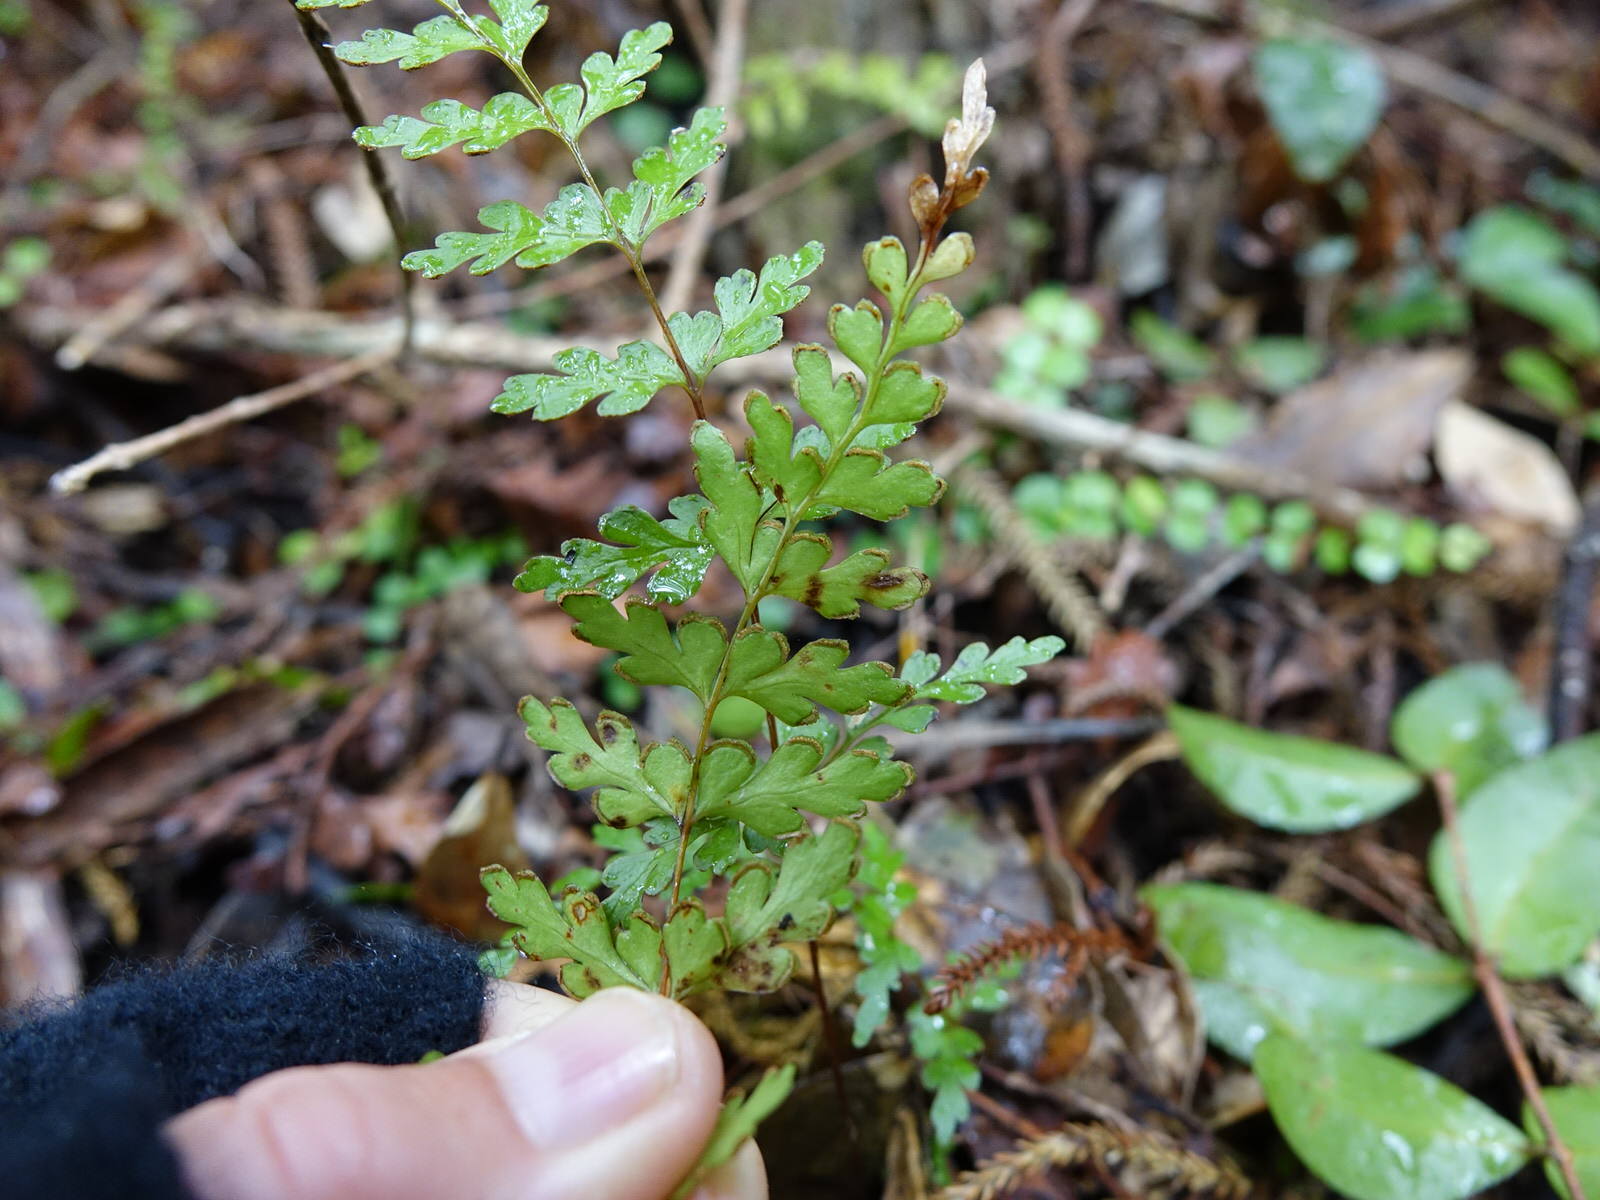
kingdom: Plantae
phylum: Tracheophyta
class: Polypodiopsida
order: Polypodiales
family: Lindsaeaceae
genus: Lindsaea
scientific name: Lindsaea trichomanoides
